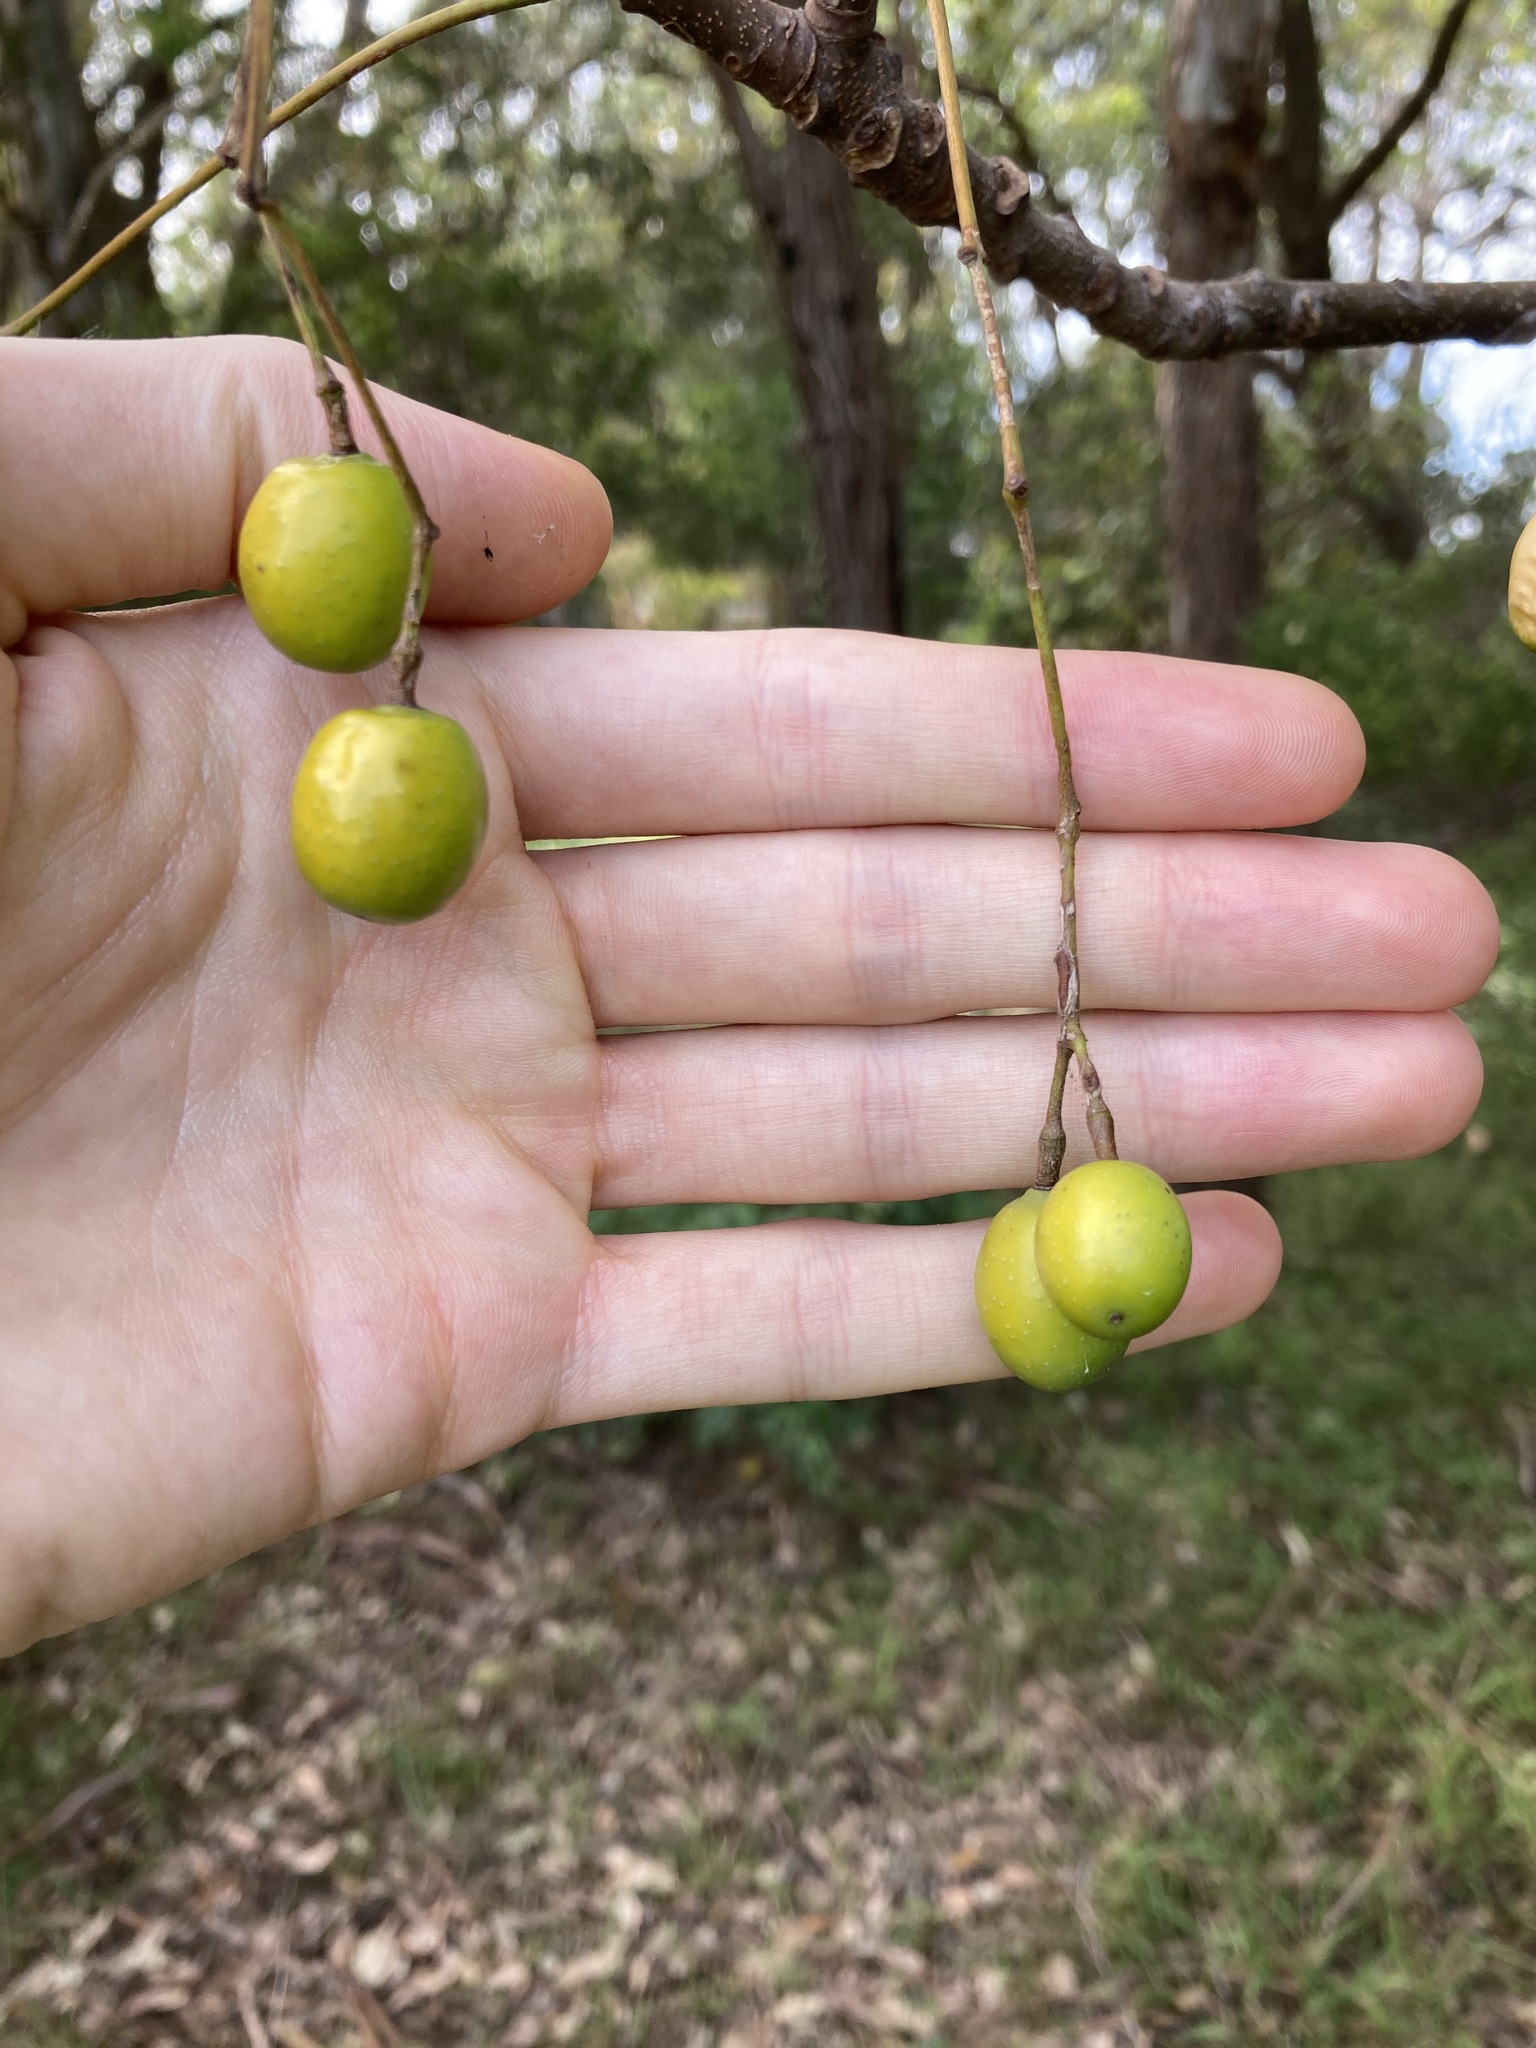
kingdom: Plantae
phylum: Tracheophyta
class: Magnoliopsida
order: Sapindales
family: Meliaceae
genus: Melia
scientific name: Melia azedarach
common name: Chinaberrytree
